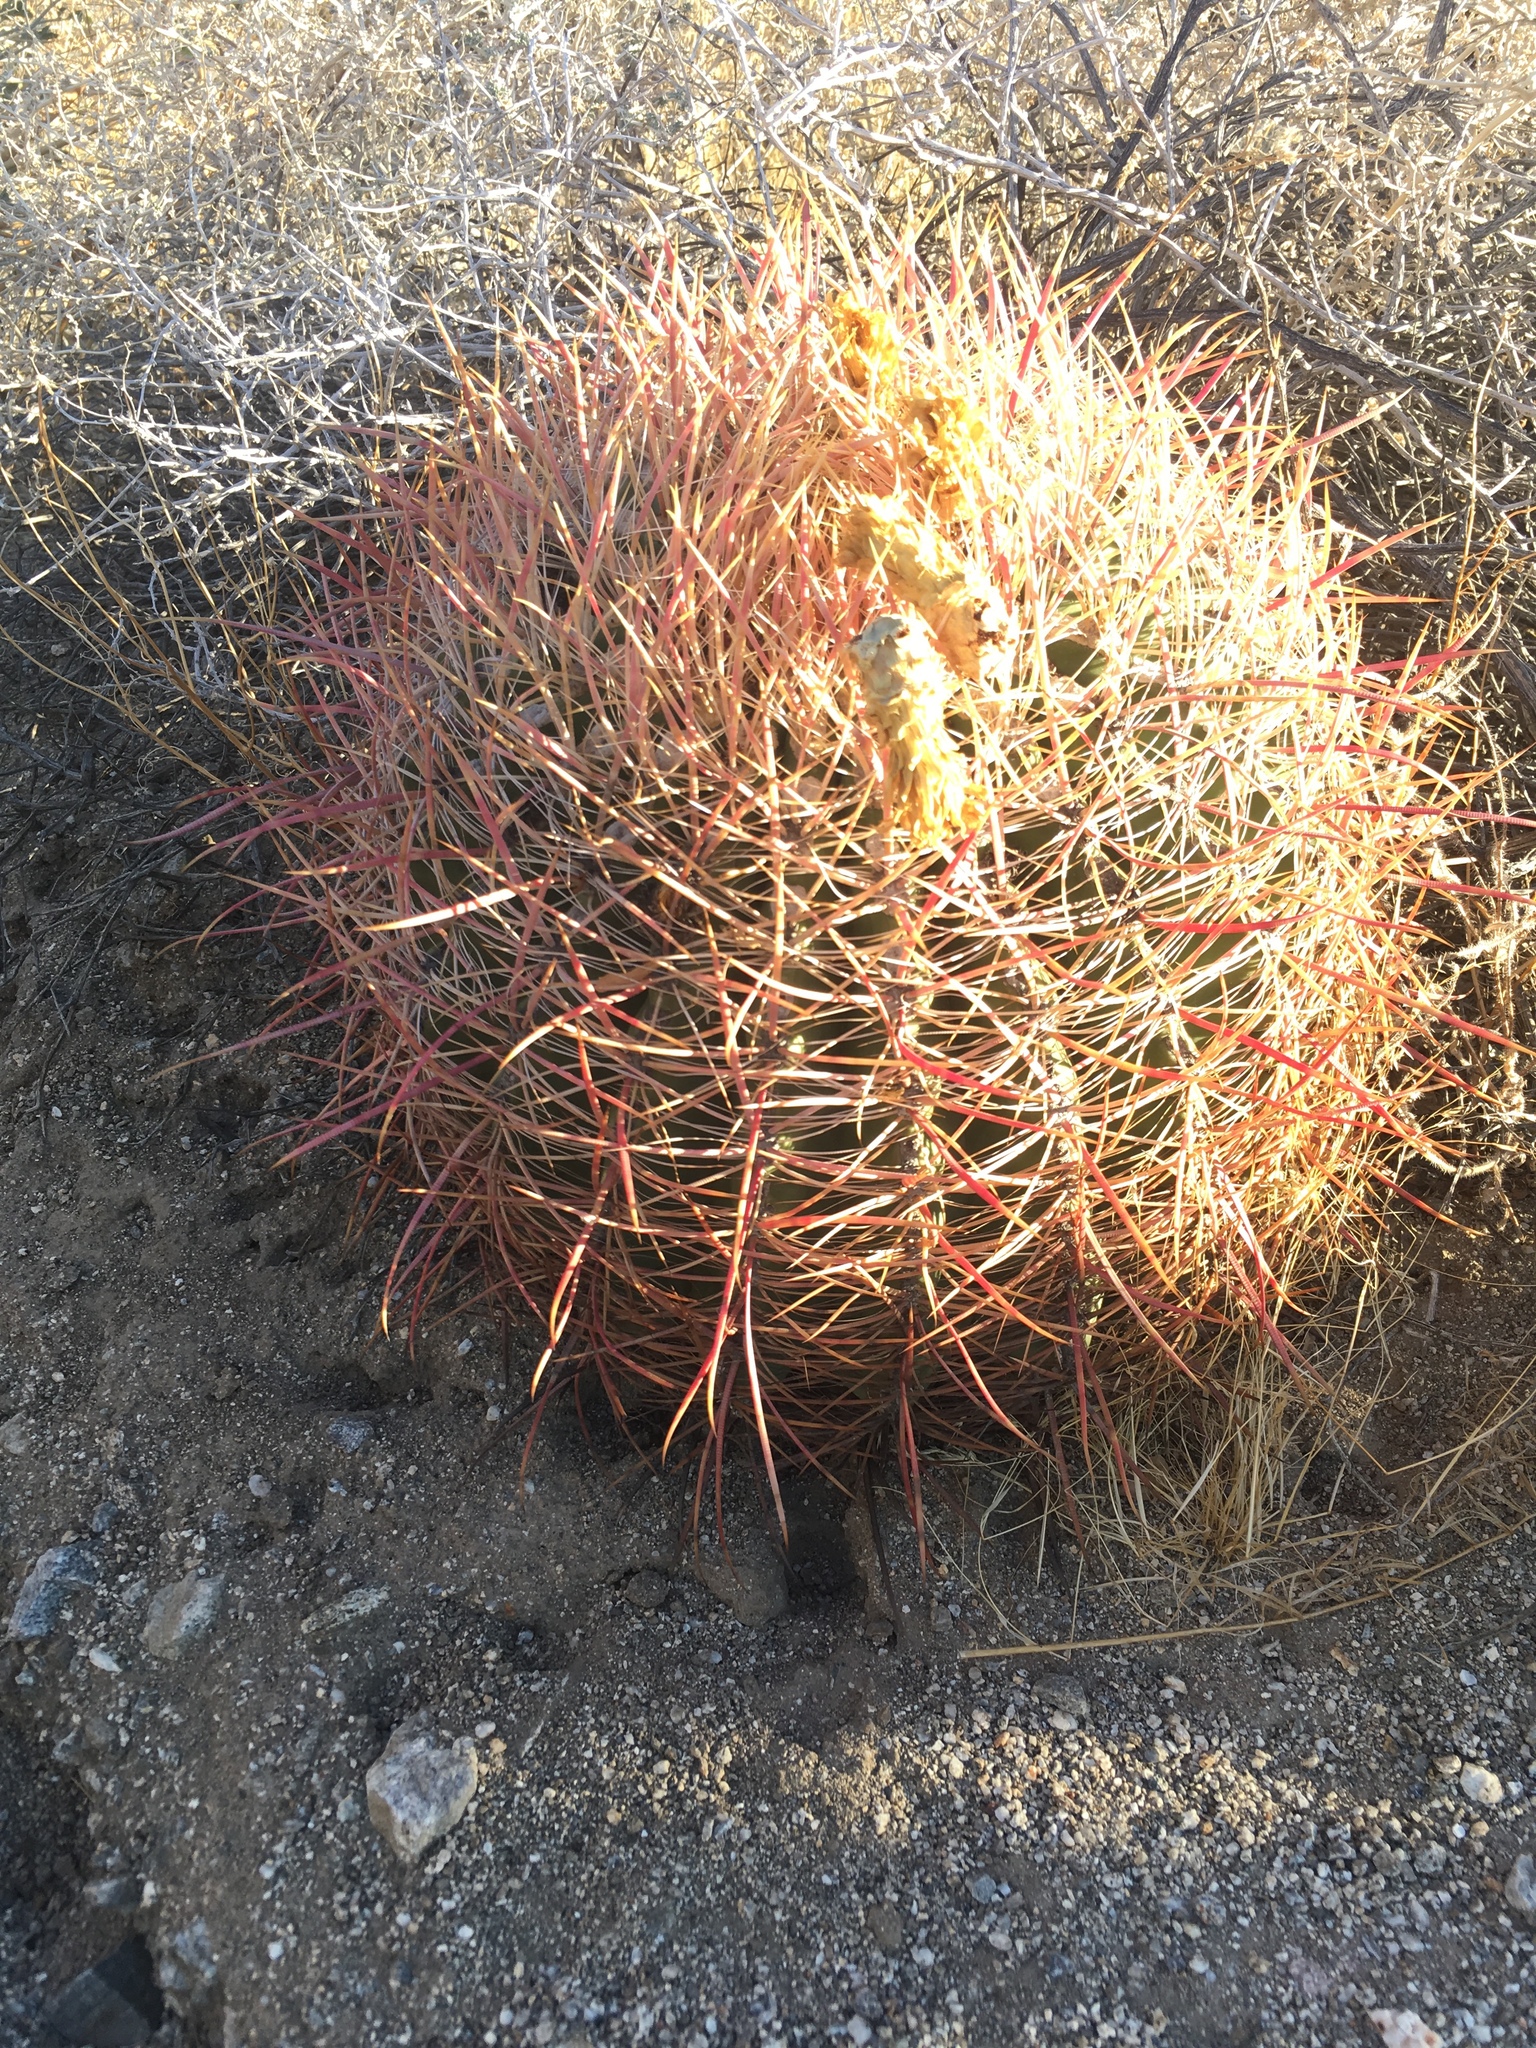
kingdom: Plantae
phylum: Tracheophyta
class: Magnoliopsida
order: Caryophyllales
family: Cactaceae
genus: Ferocactus
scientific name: Ferocactus cylindraceus
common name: California barrel cactus
